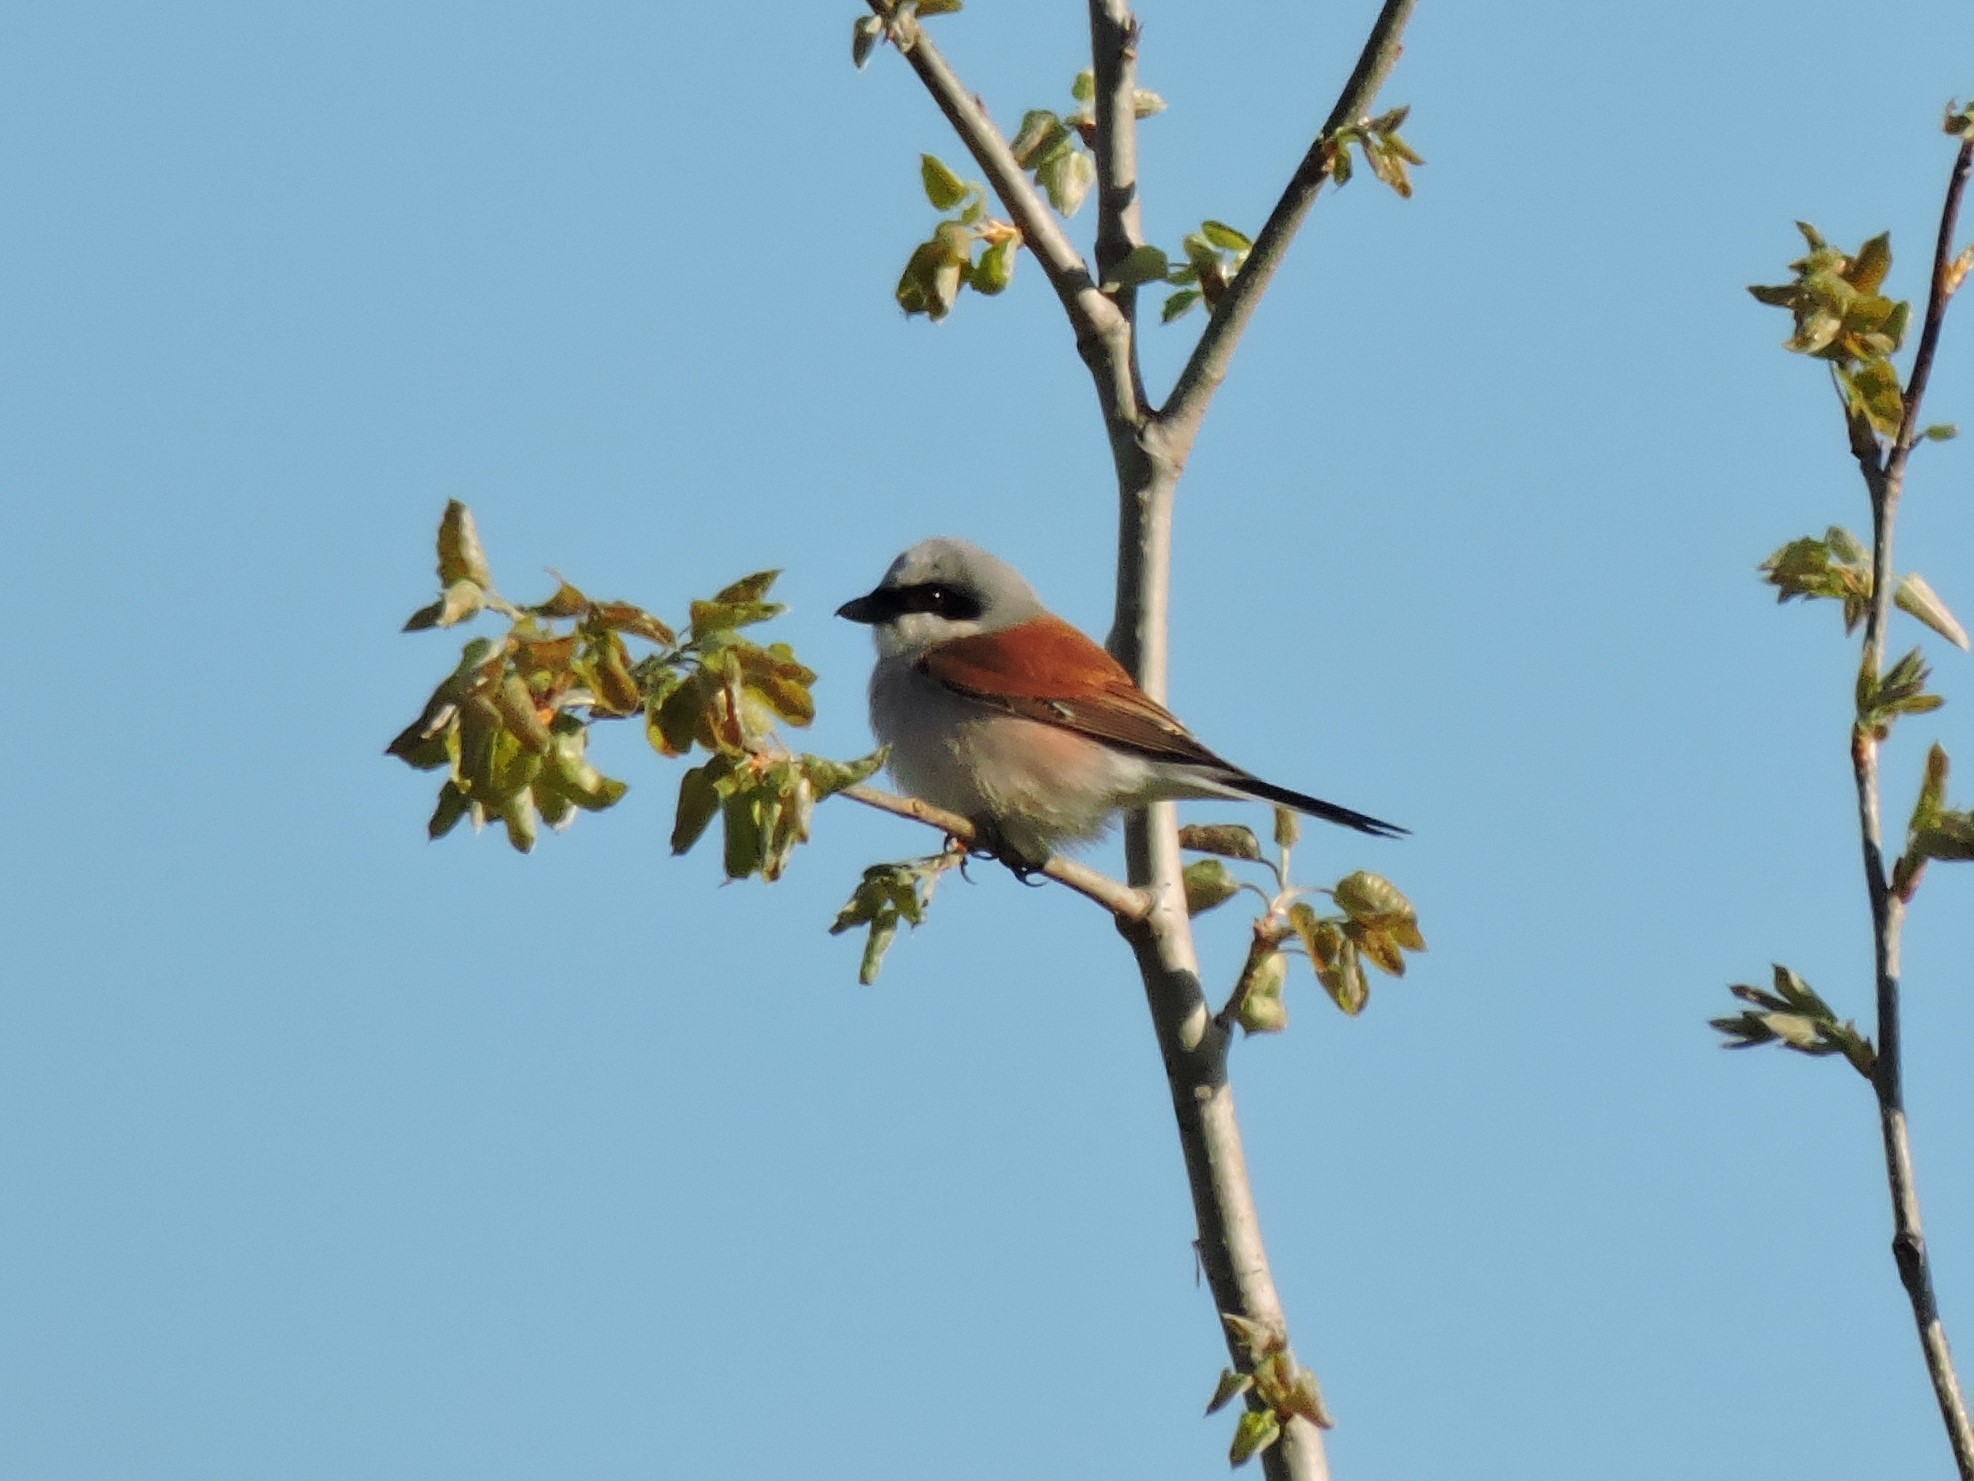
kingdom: Animalia
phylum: Chordata
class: Aves
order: Passeriformes
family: Laniidae
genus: Lanius
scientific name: Lanius collurio
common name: Red-backed shrike
